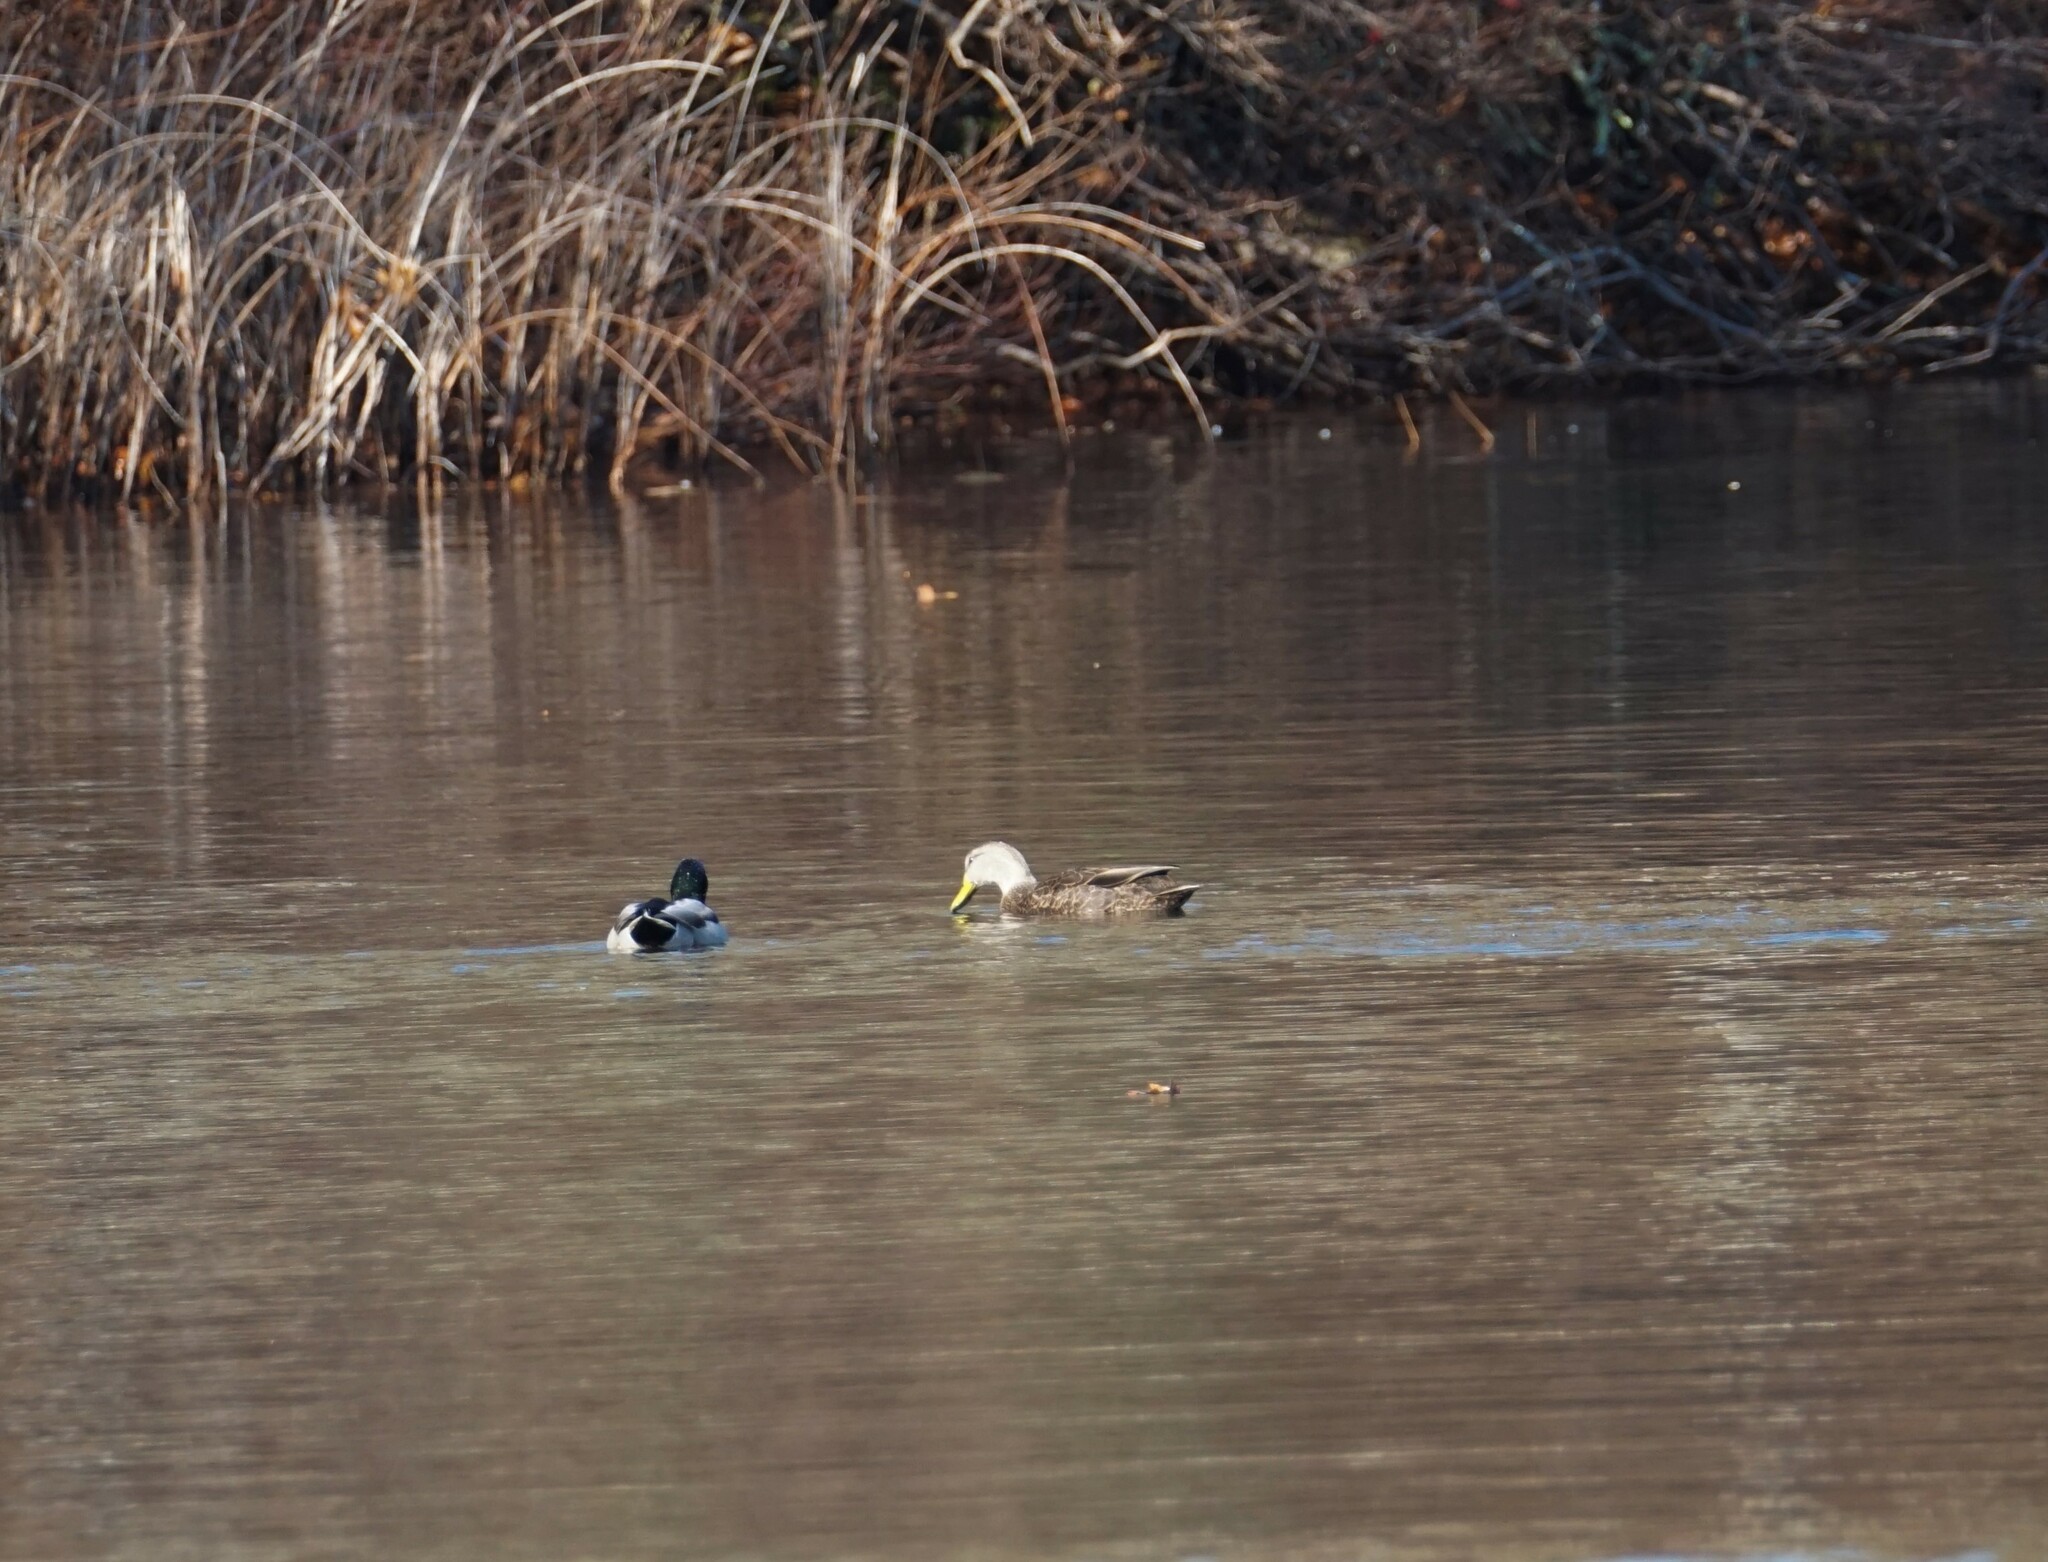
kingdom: Animalia
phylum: Chordata
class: Aves
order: Anseriformes
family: Anatidae
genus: Anas
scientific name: Anas rubripes
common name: American black duck
